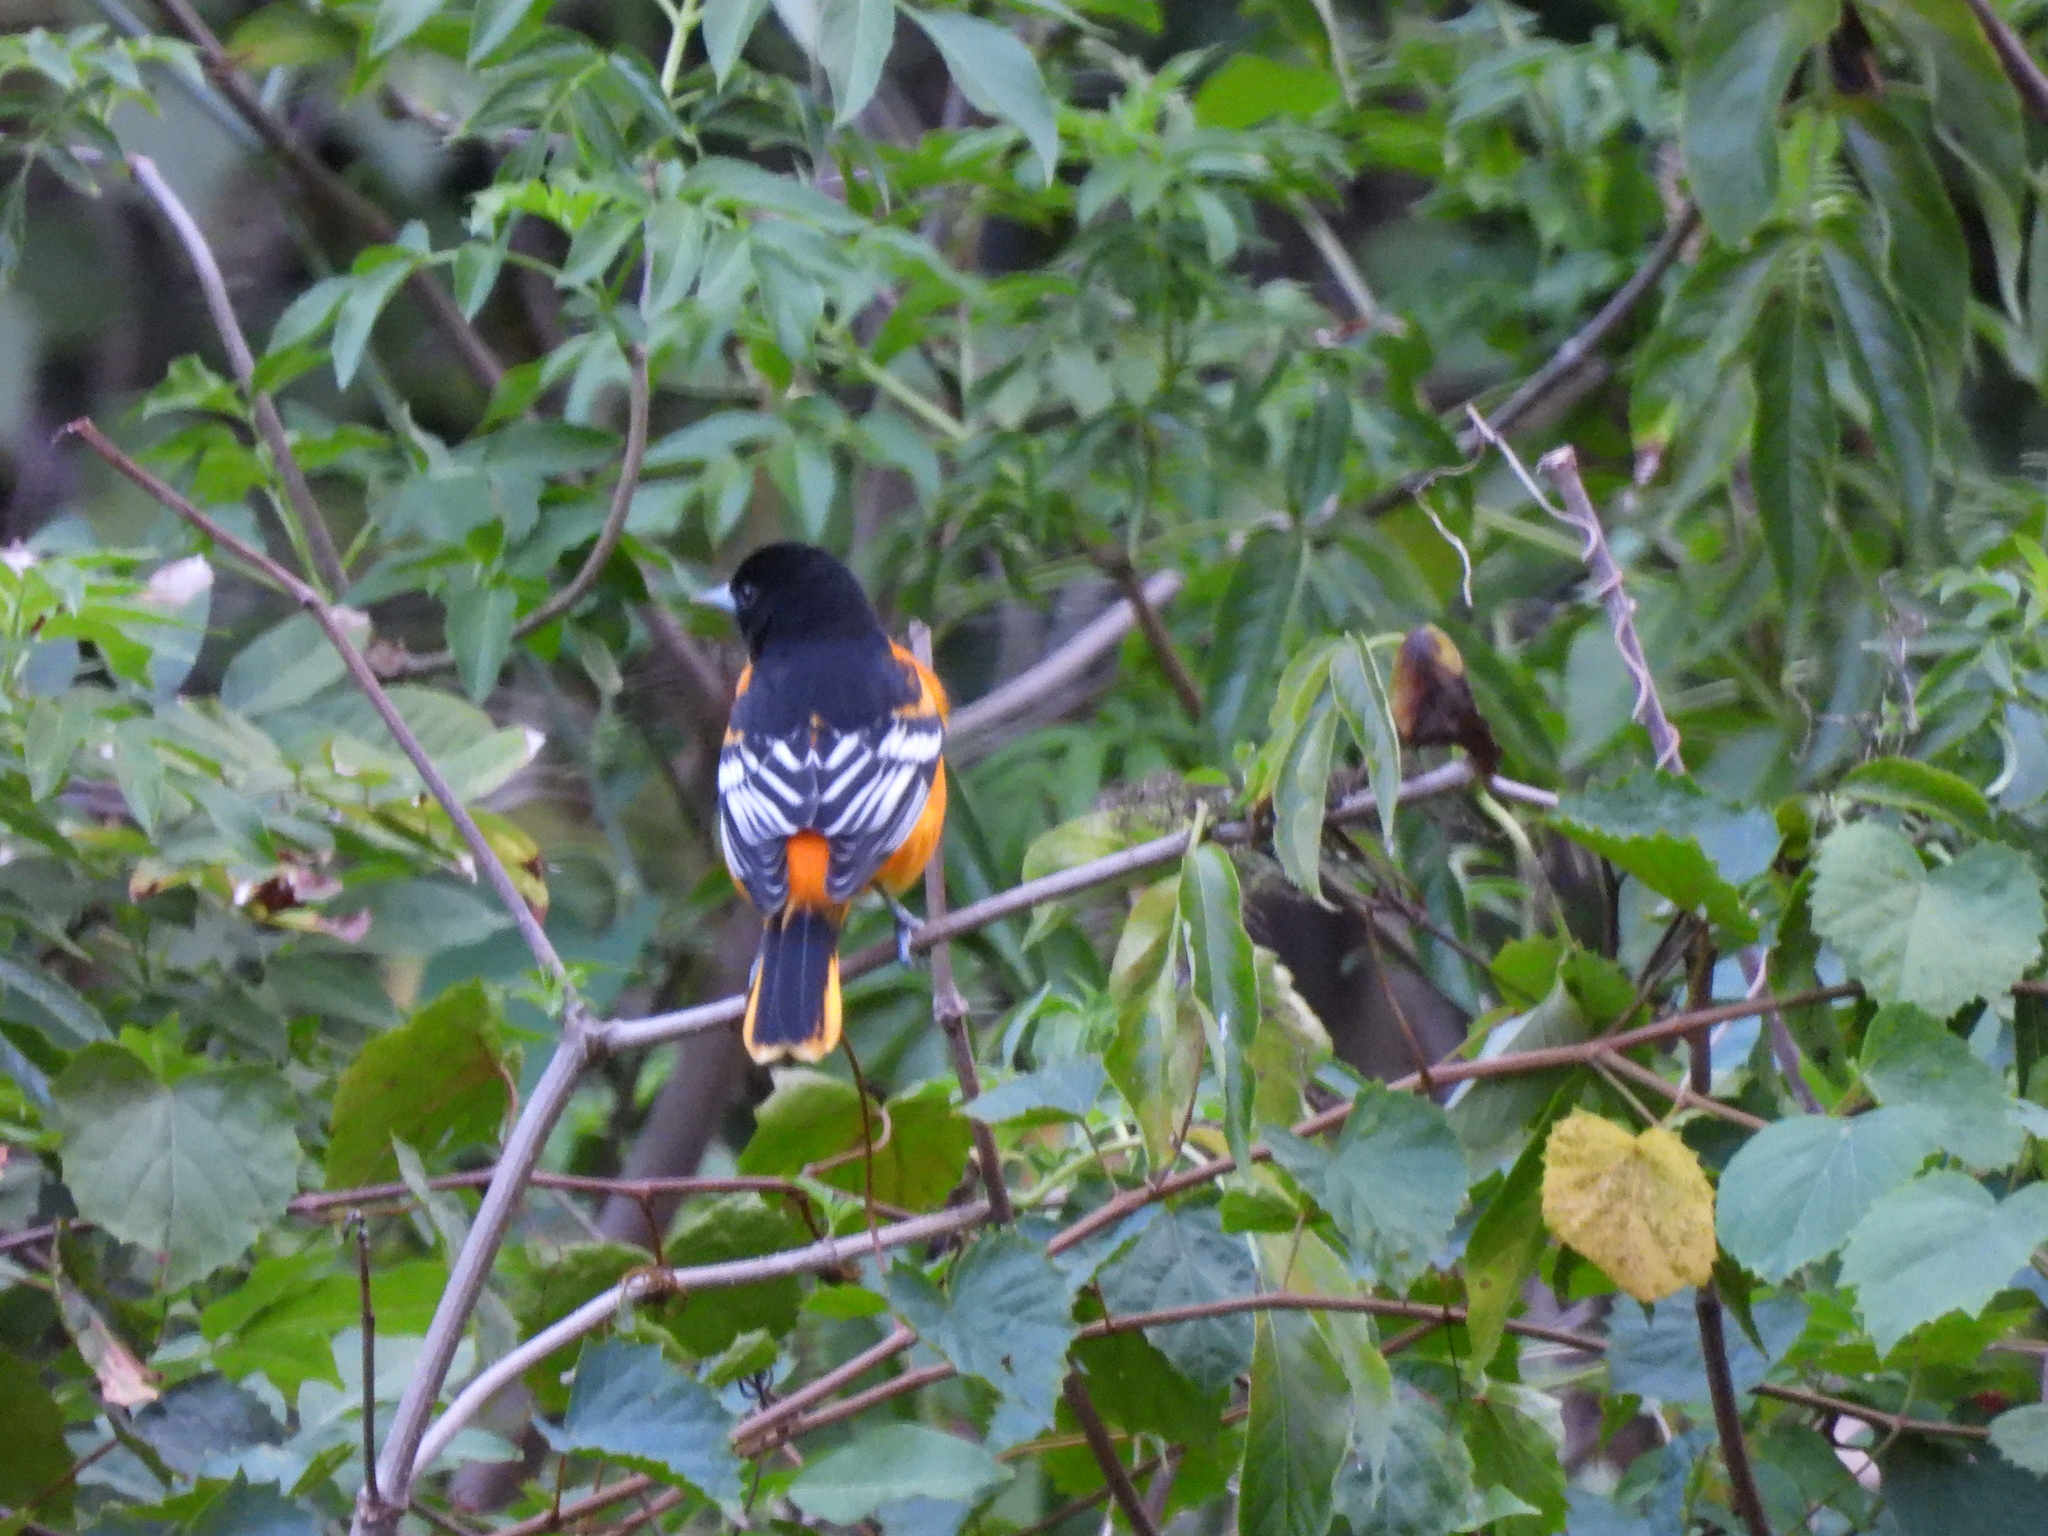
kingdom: Animalia
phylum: Chordata
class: Aves
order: Passeriformes
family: Icteridae
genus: Icterus
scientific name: Icterus galbula
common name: Baltimore oriole
